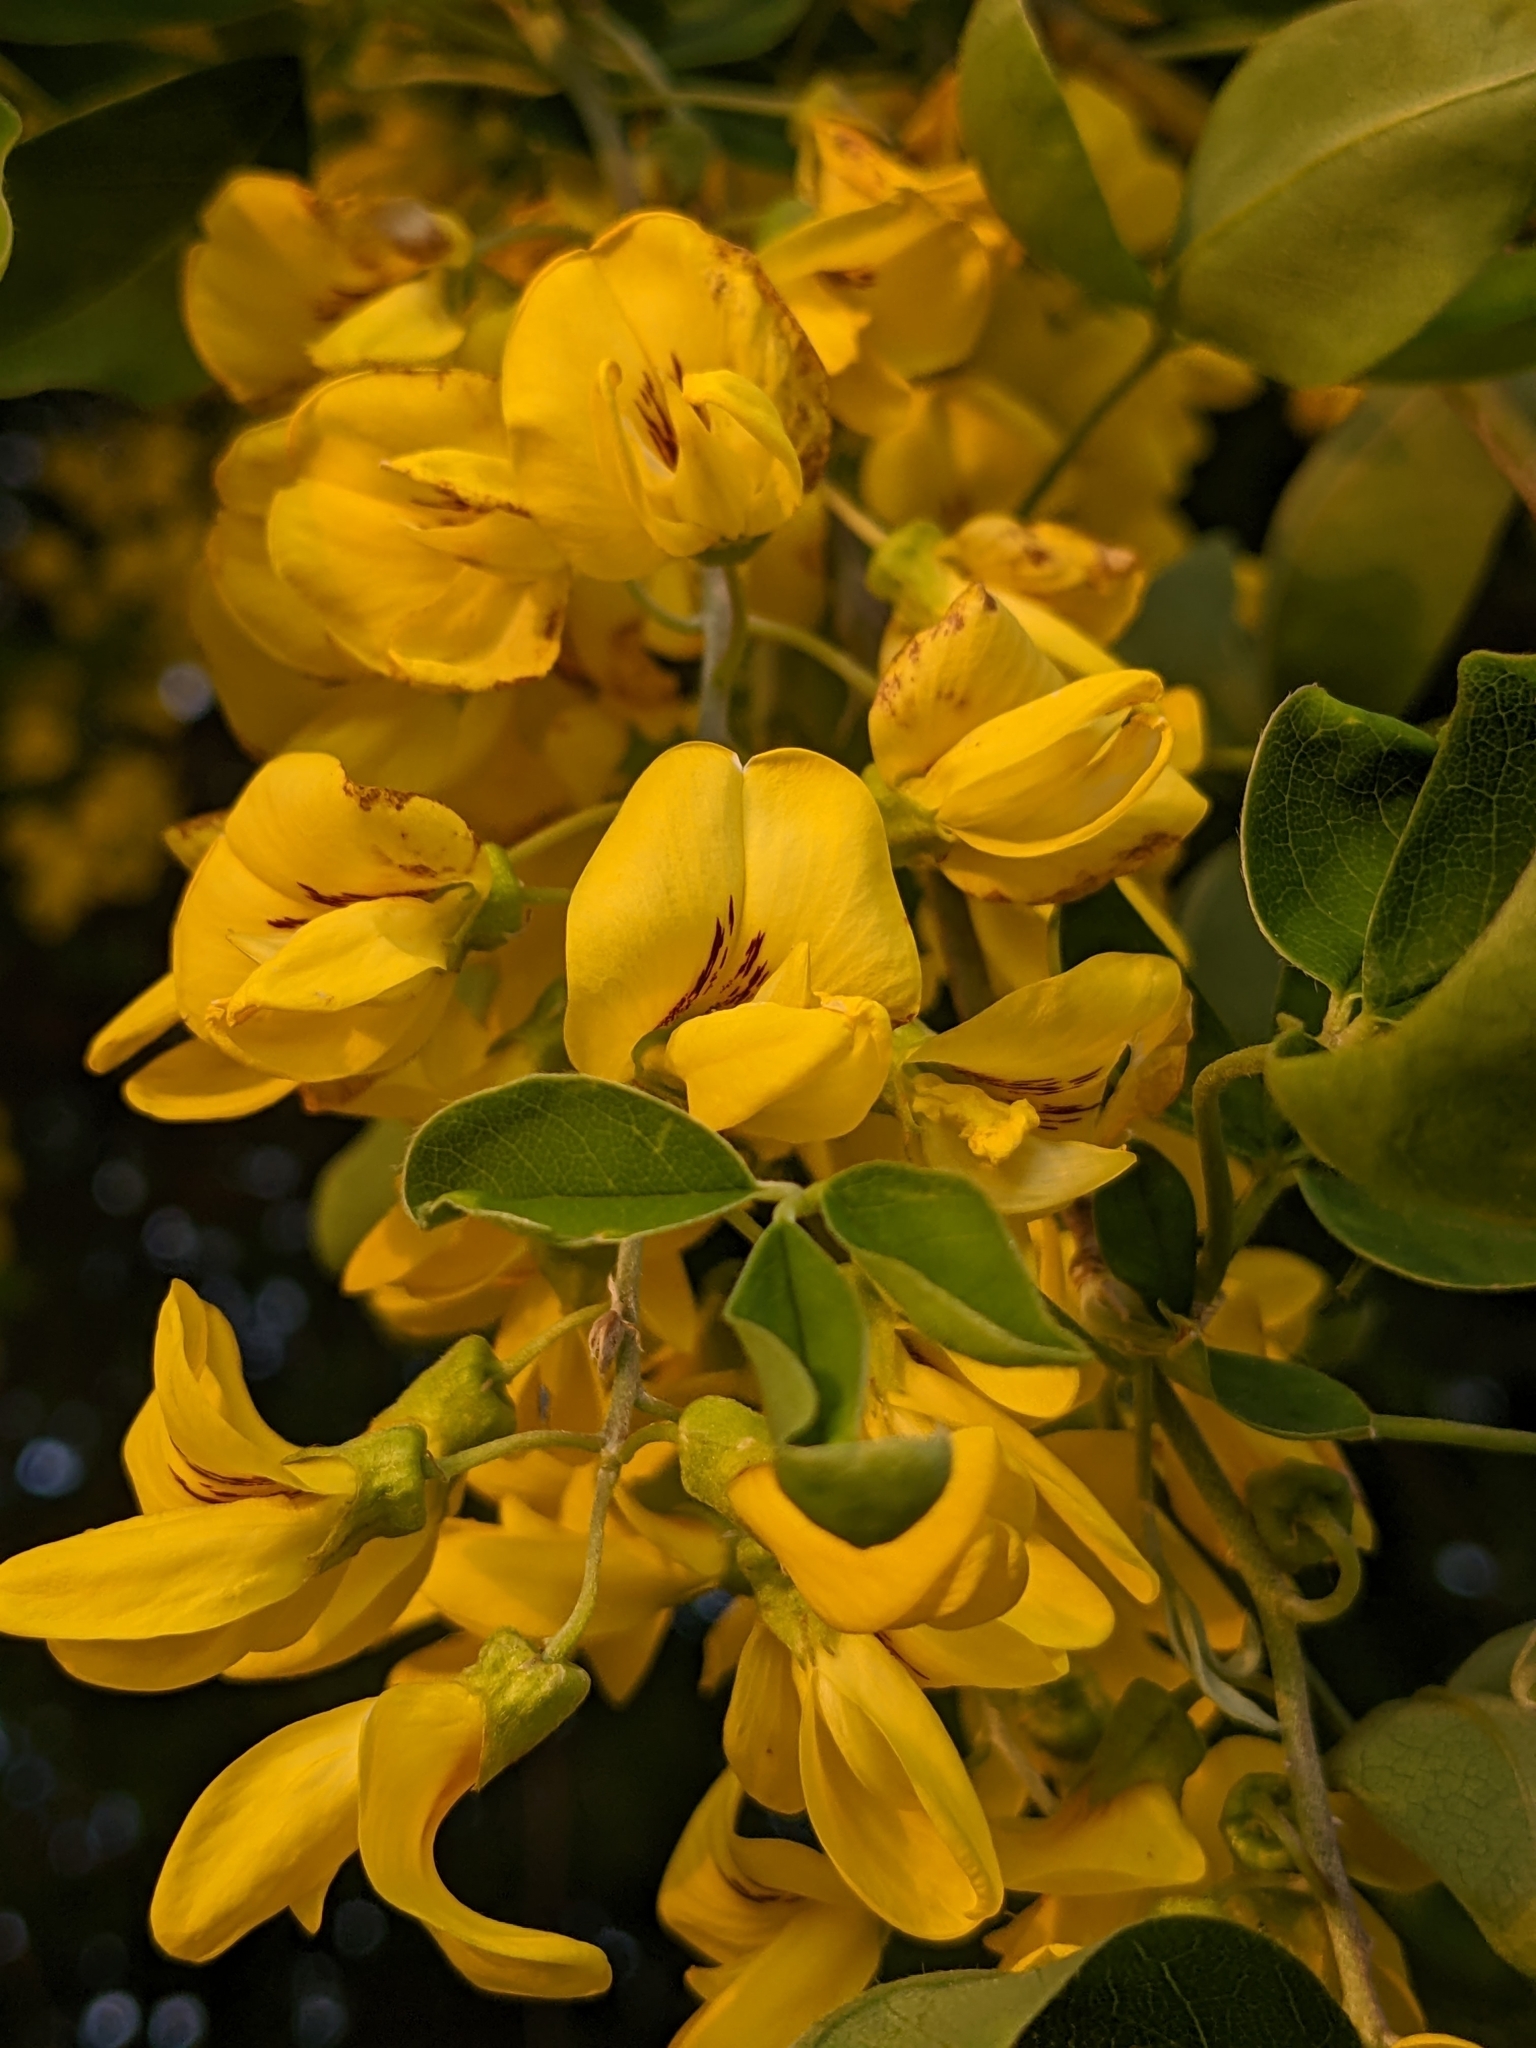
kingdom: Plantae
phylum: Tracheophyta
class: Magnoliopsida
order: Fabales
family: Fabaceae
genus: Laburnum
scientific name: Laburnum anagyroides
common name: Laburnum
